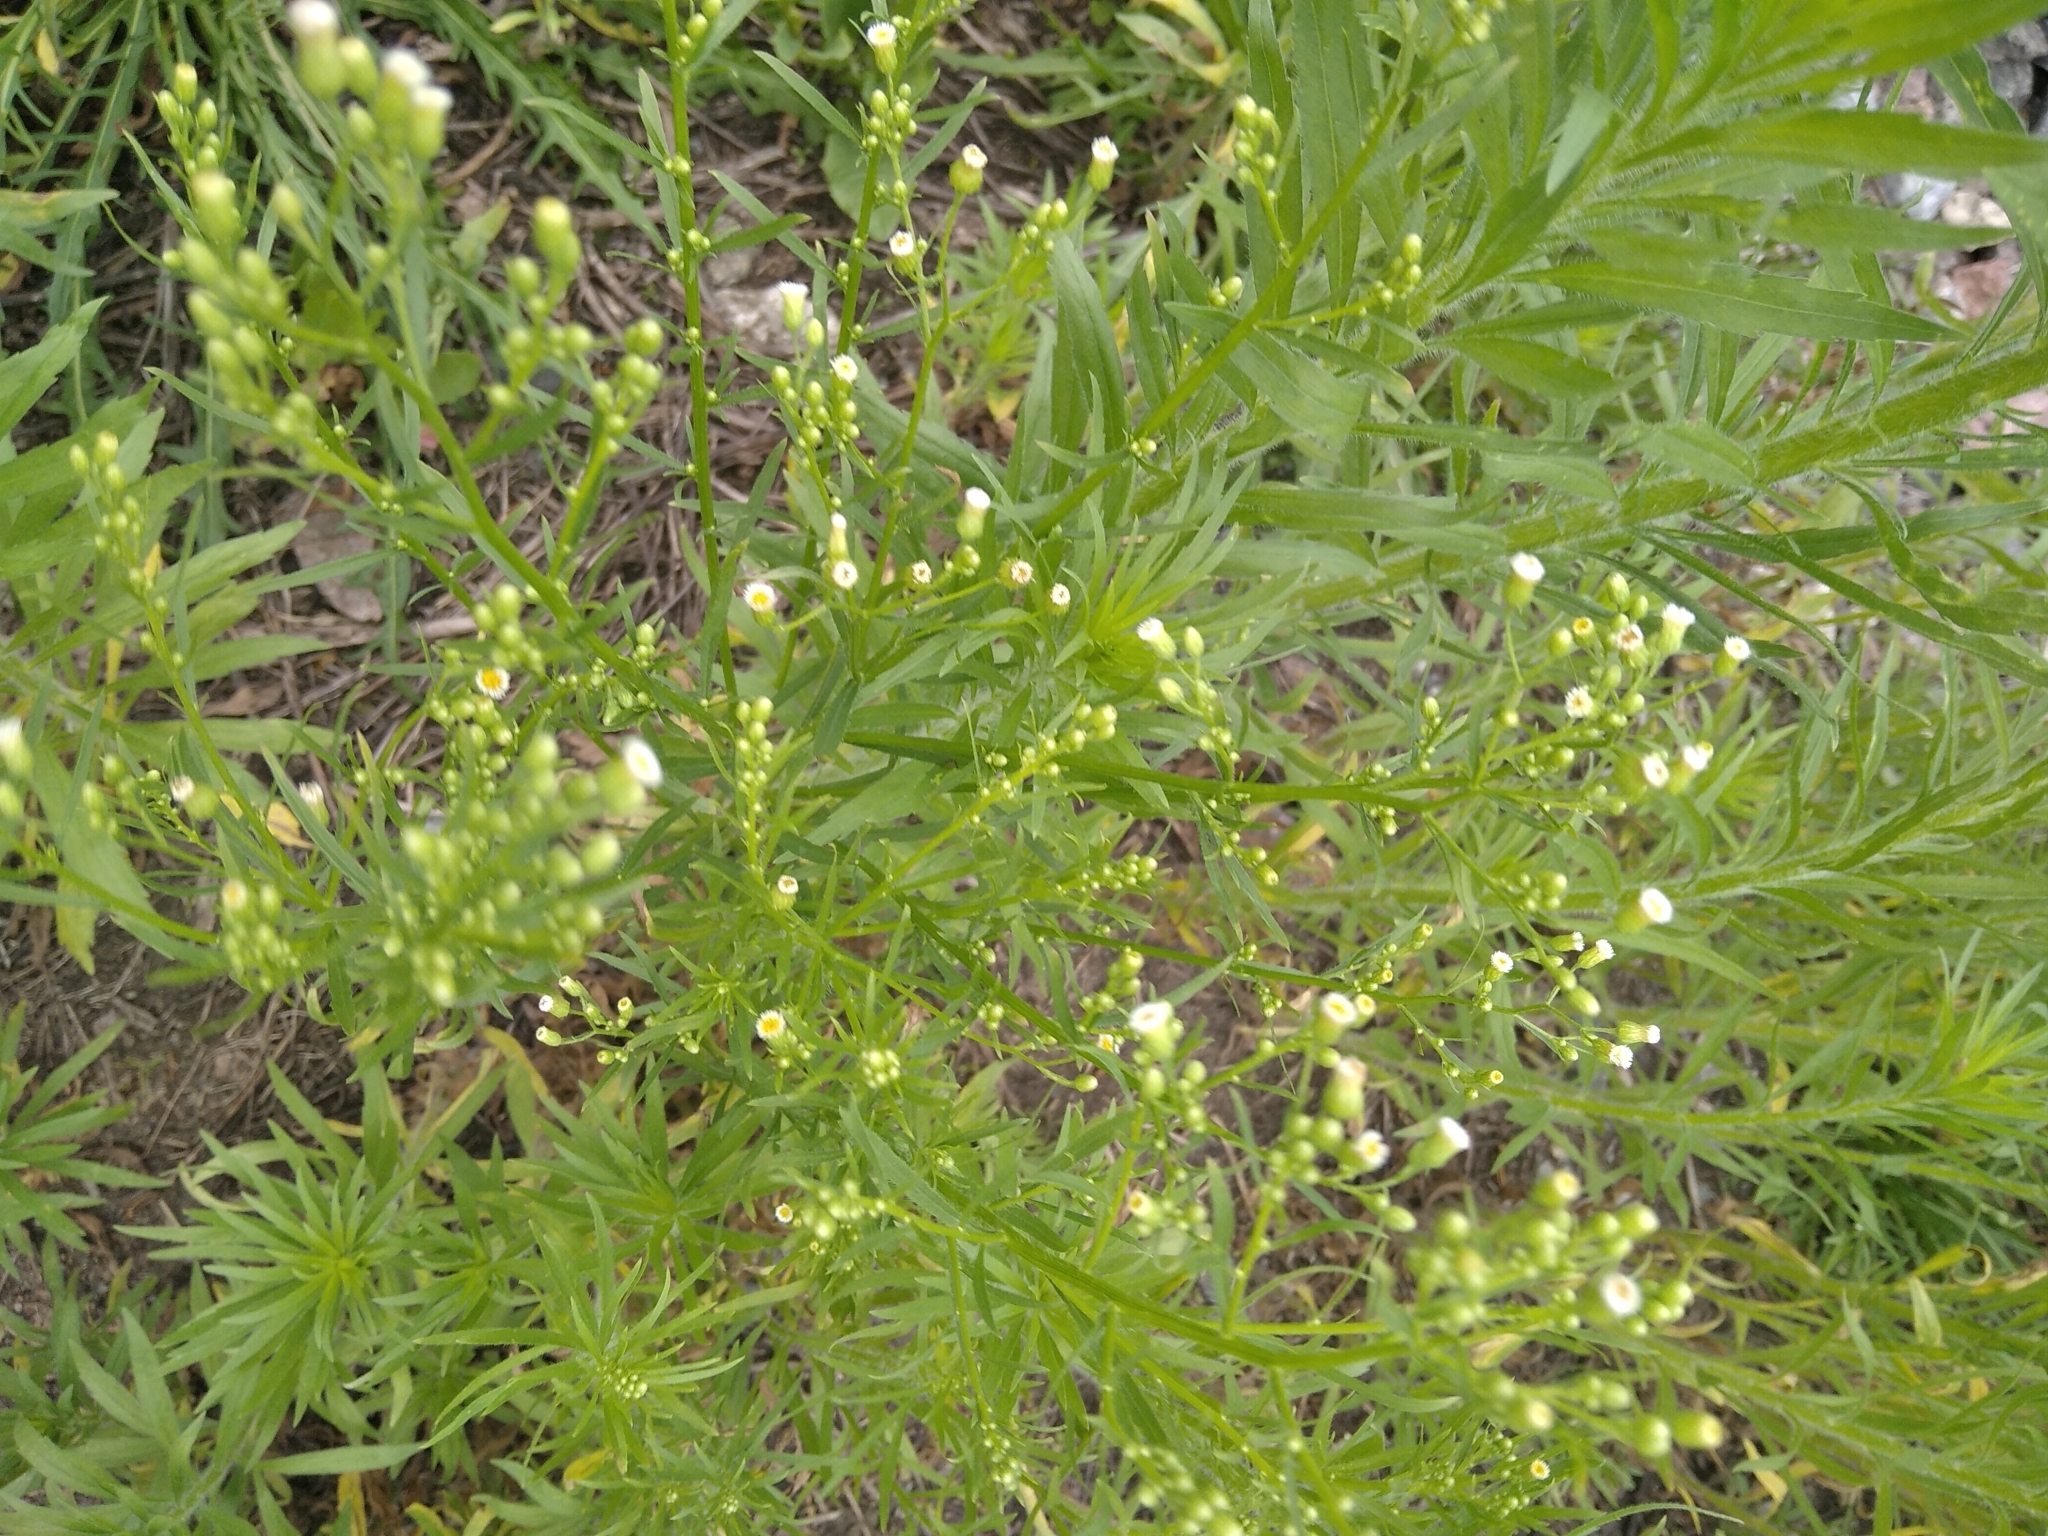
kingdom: Plantae
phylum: Tracheophyta
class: Magnoliopsida
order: Asterales
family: Asteraceae
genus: Erigeron
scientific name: Erigeron canadensis
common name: Canadian fleabane
